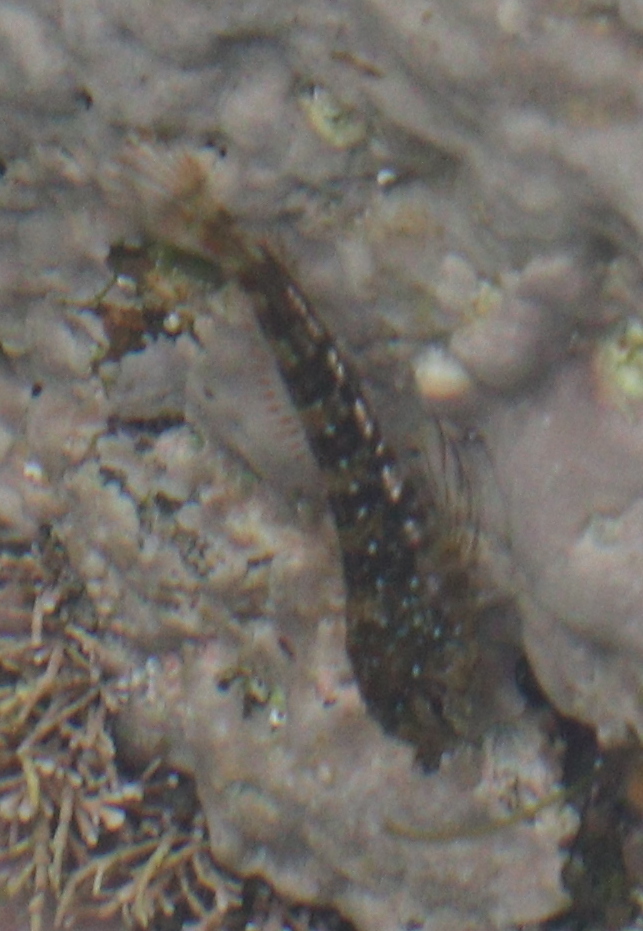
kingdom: Animalia
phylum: Chordata
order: Perciformes
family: Blenniidae
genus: Coryphoblennius
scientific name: Coryphoblennius galerita
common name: Montagu's blenny
